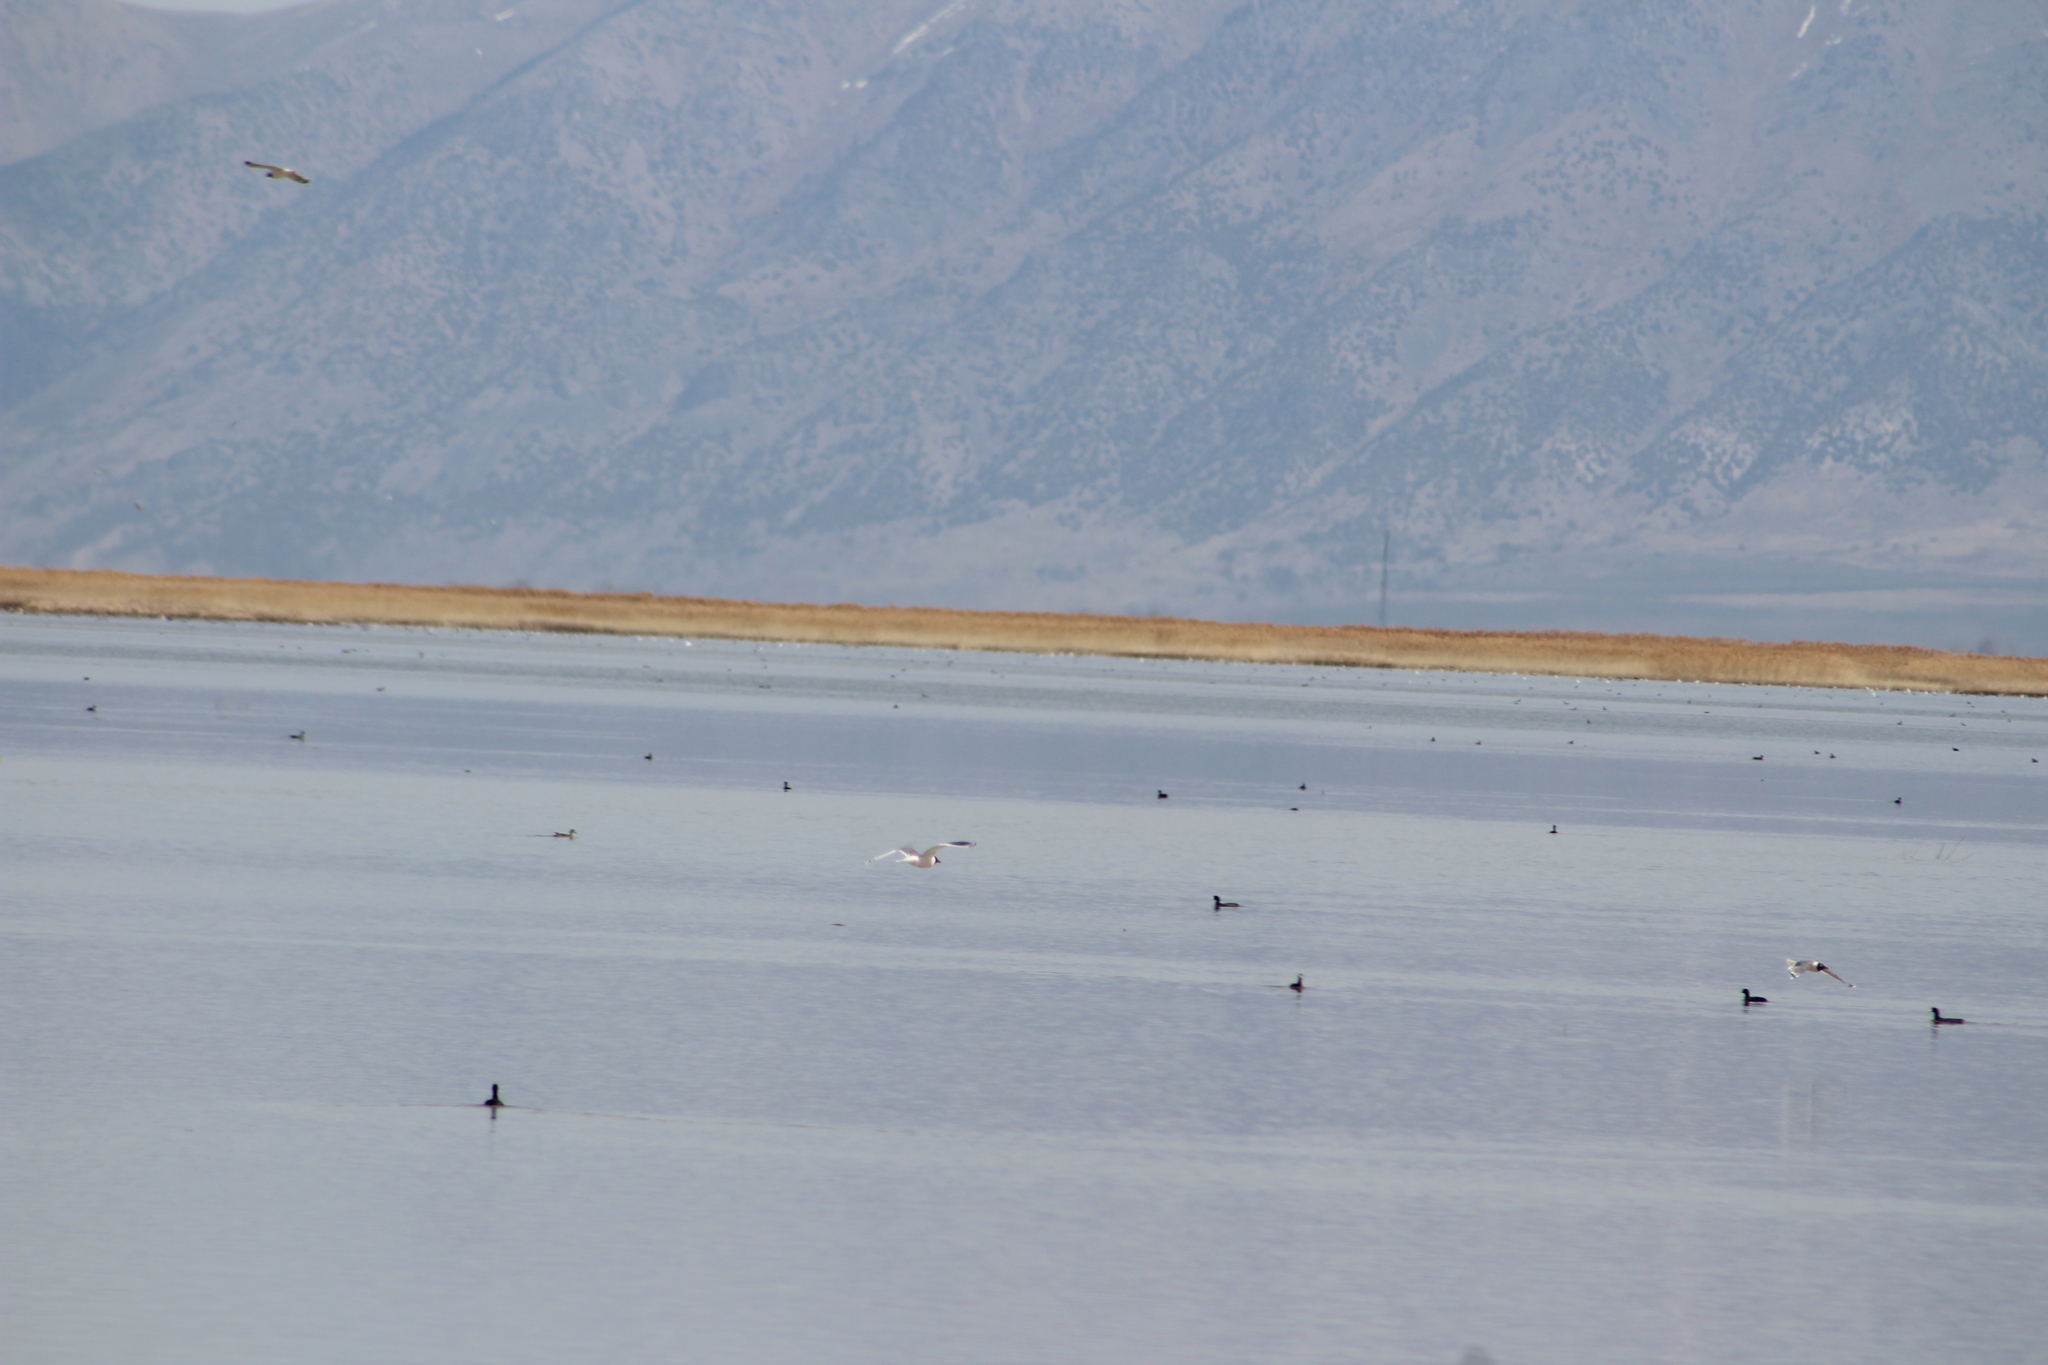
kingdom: Animalia
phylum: Chordata
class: Aves
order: Charadriiformes
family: Laridae
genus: Leucophaeus
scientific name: Leucophaeus pipixcan
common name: Franklin's gull
